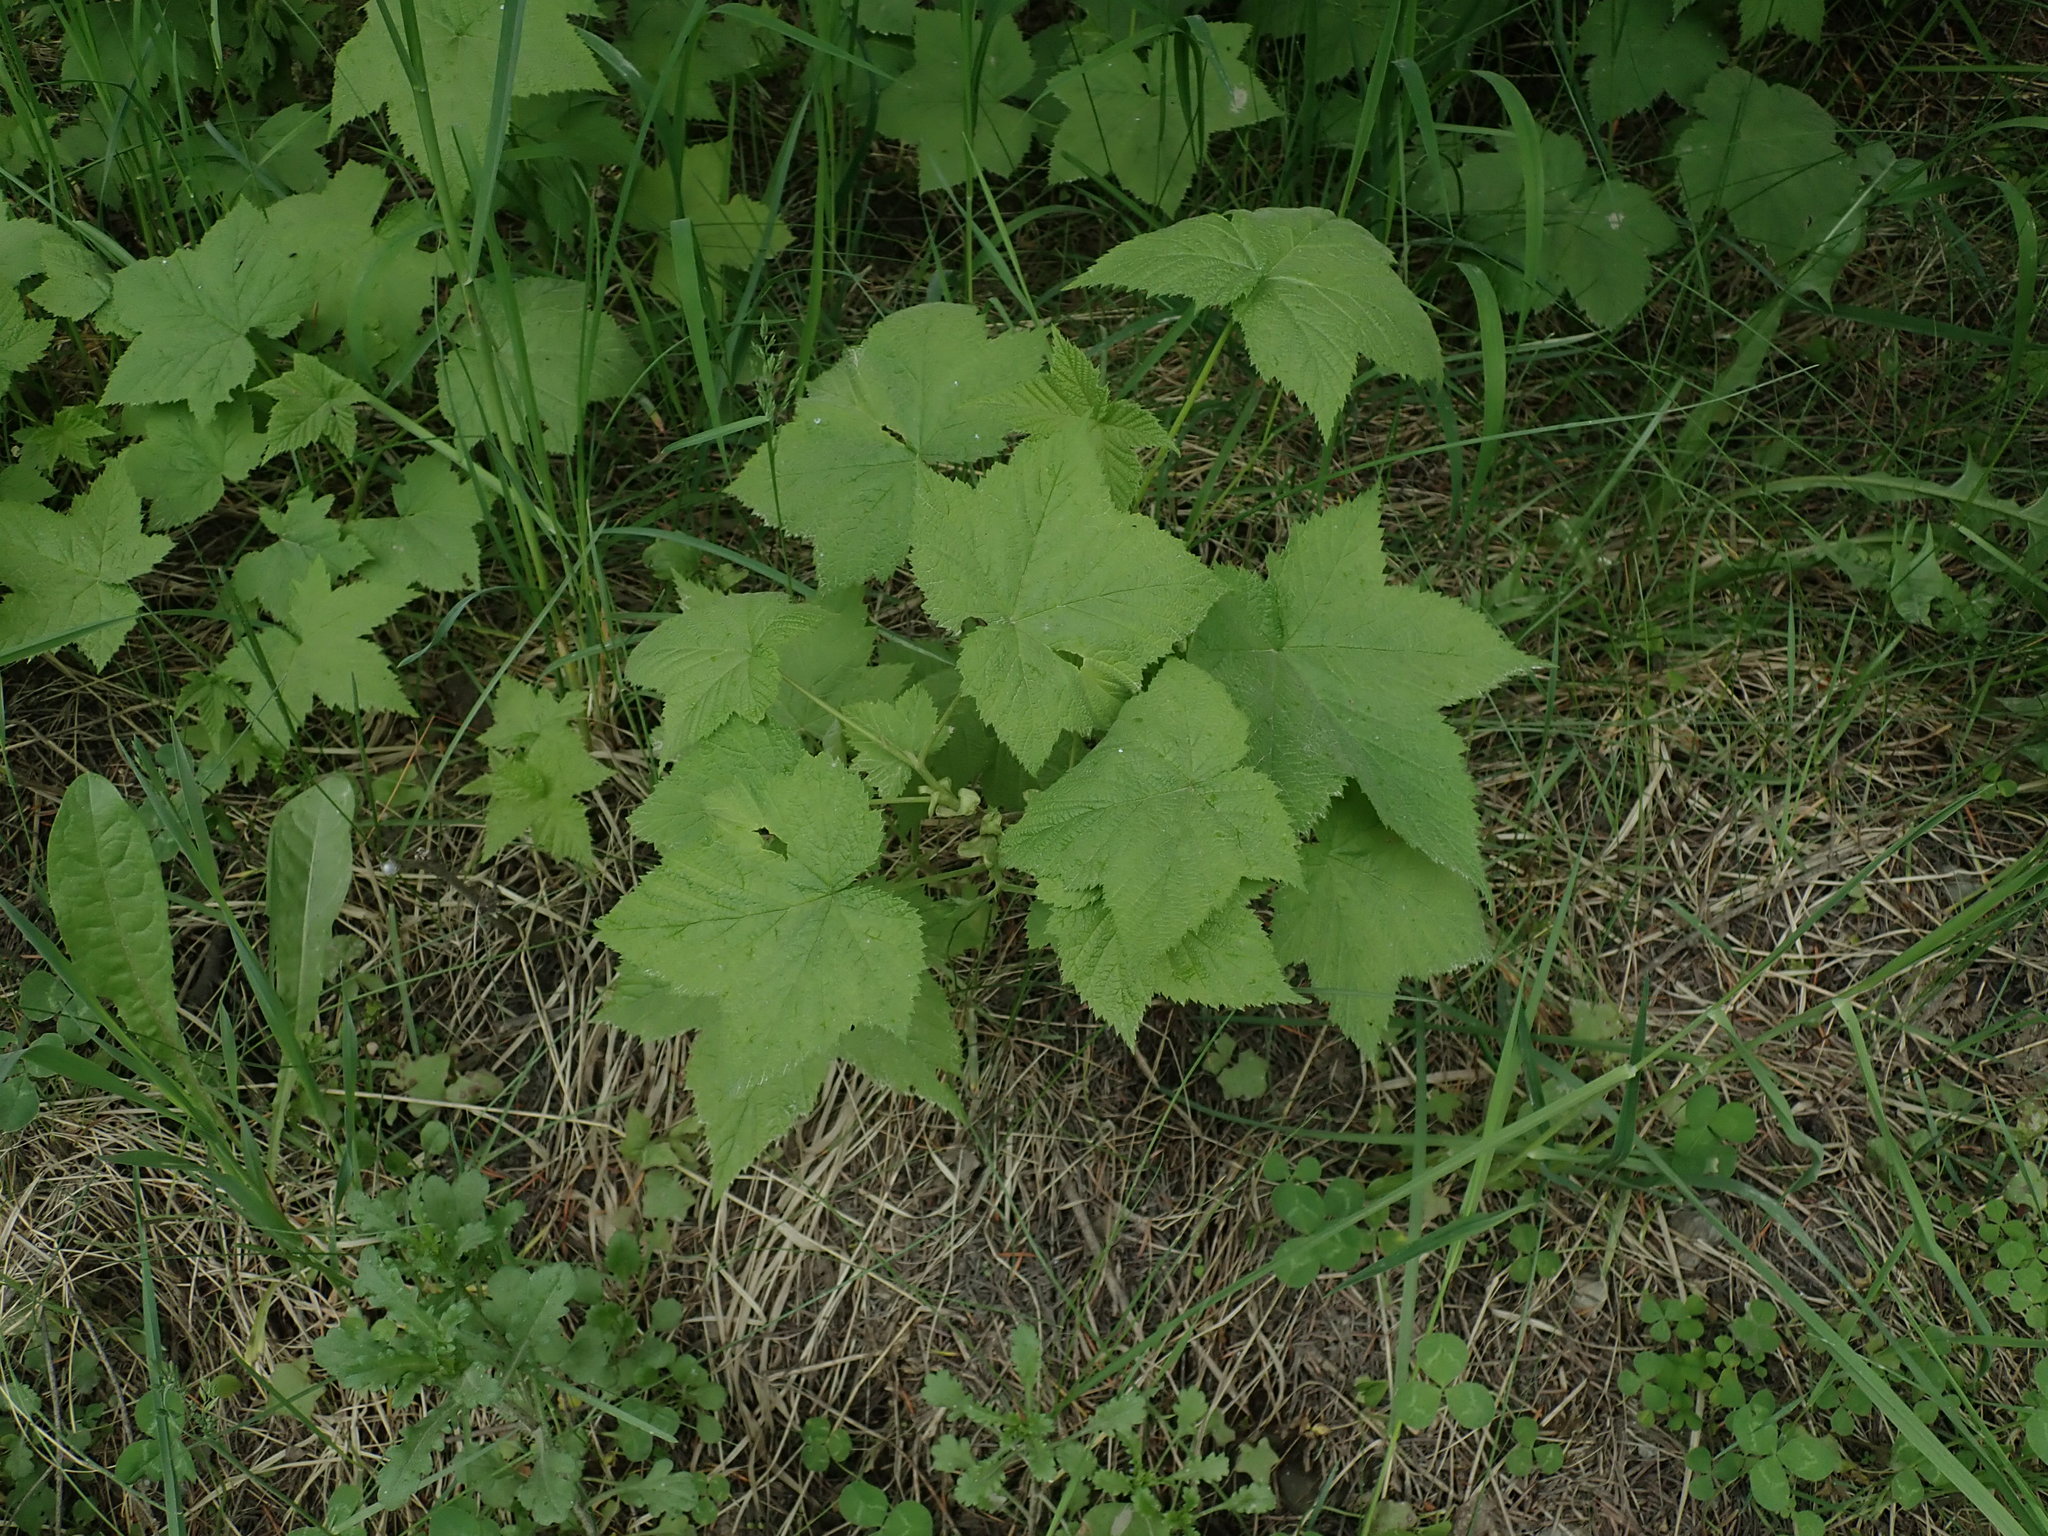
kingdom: Plantae
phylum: Tracheophyta
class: Magnoliopsida
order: Rosales
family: Rosaceae
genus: Rubus
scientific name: Rubus parviflorus
